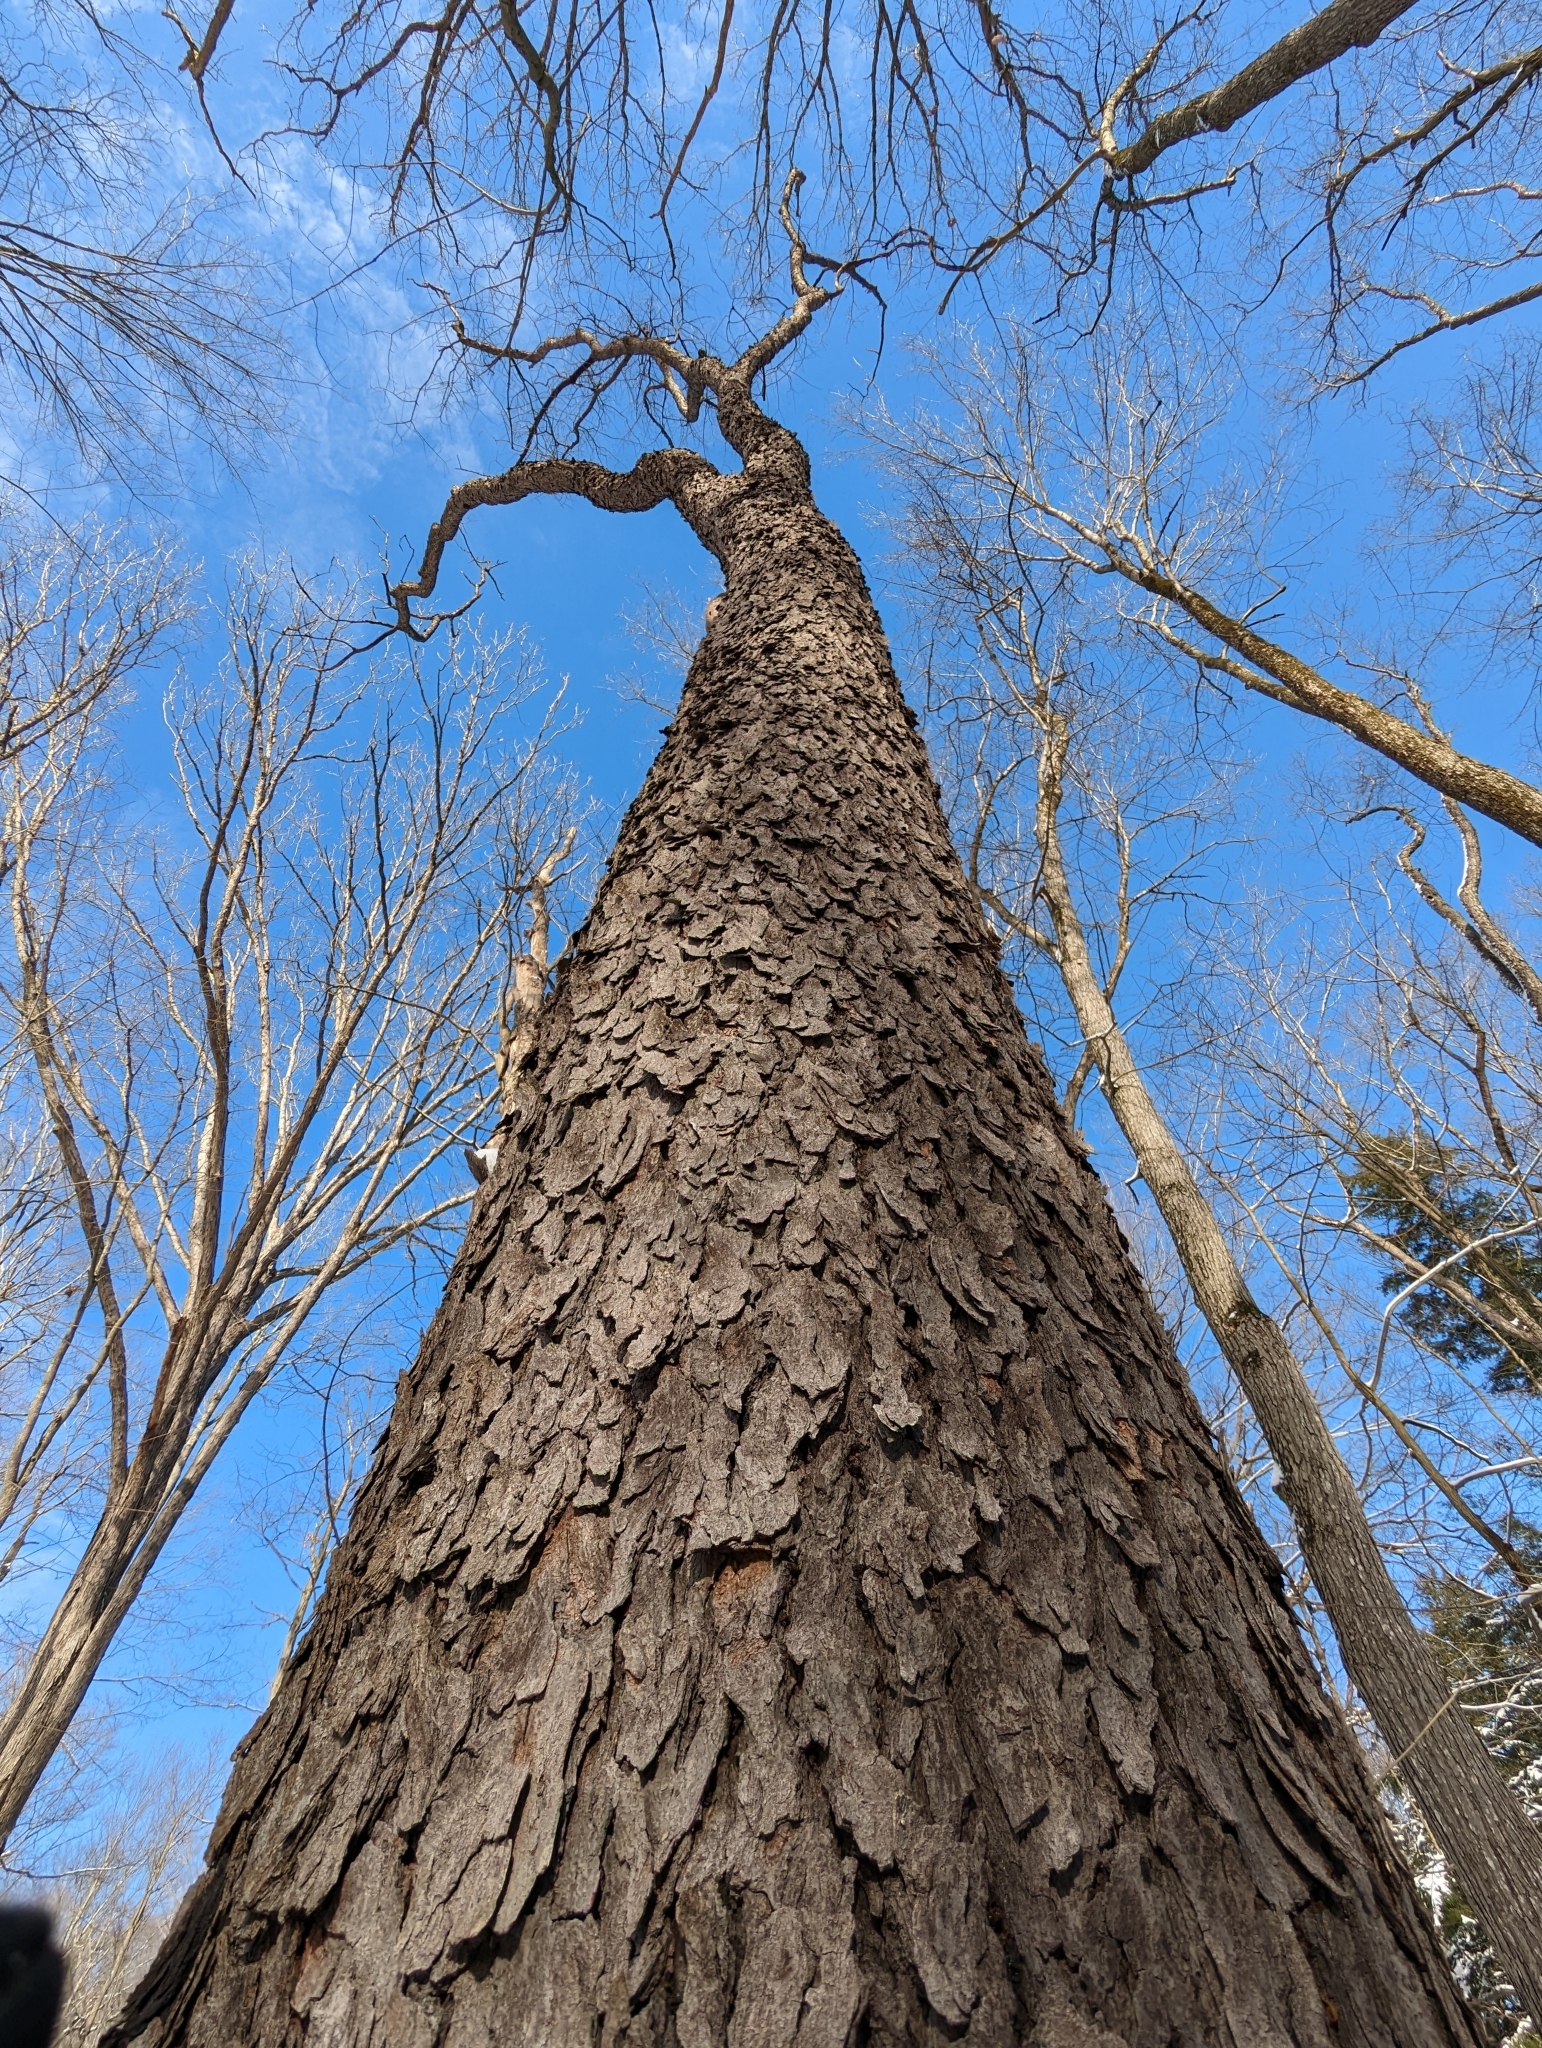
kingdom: Plantae
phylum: Tracheophyta
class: Magnoliopsida
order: Rosales
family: Rosaceae
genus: Prunus
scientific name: Prunus serotina
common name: Black cherry
